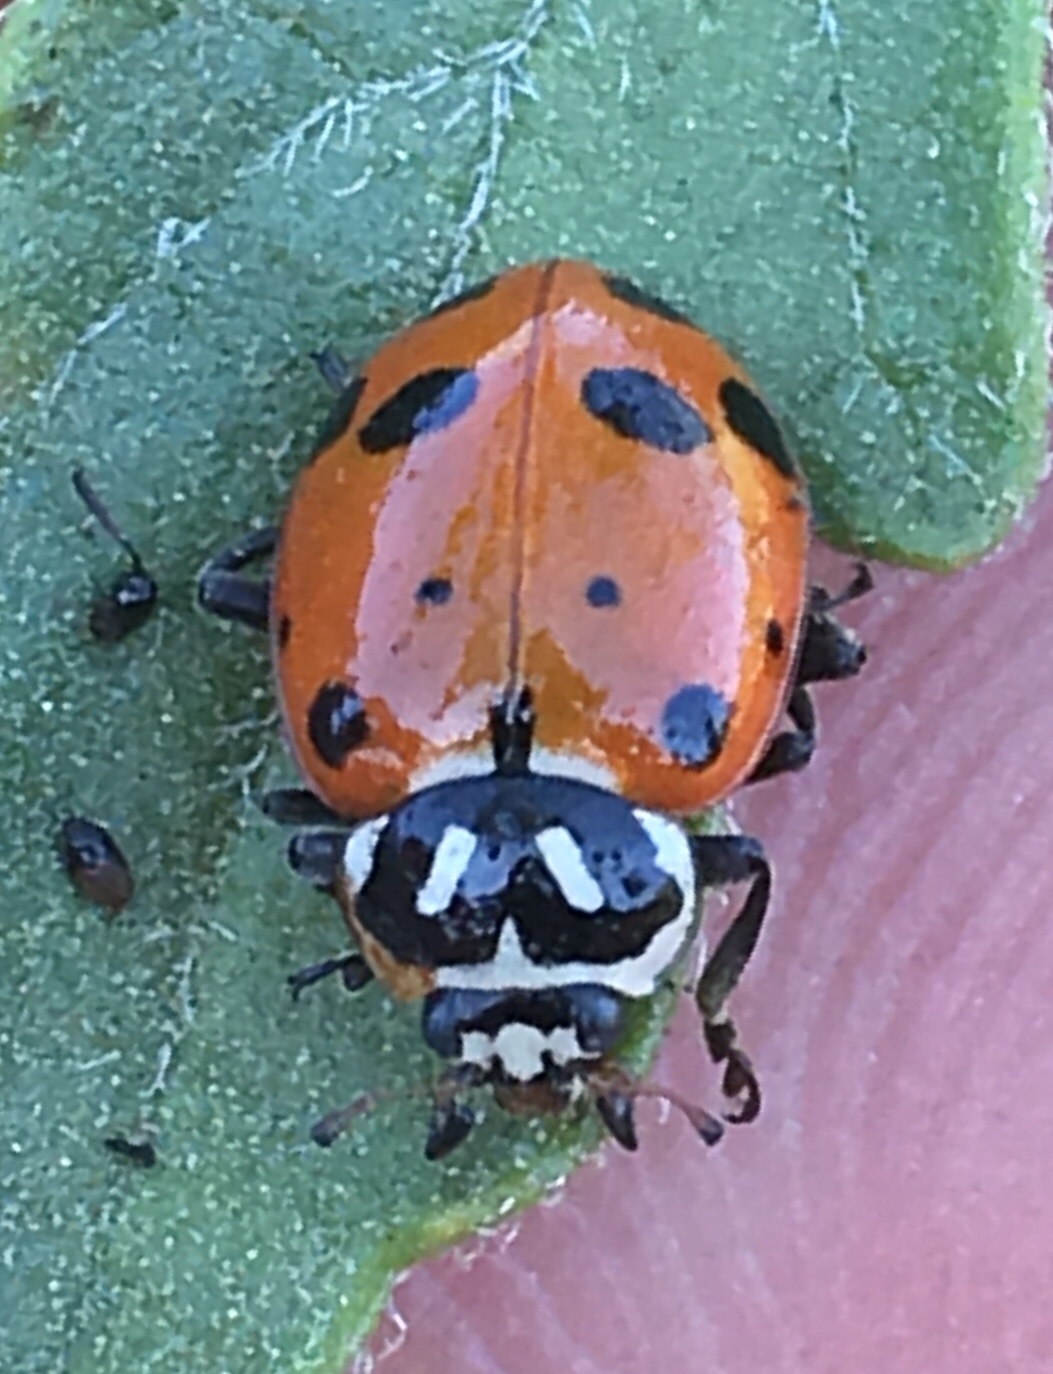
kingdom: Animalia
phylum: Arthropoda
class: Insecta
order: Coleoptera
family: Coccinellidae
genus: Hippodamia
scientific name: Hippodamia convergens
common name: Convergent lady beetle
